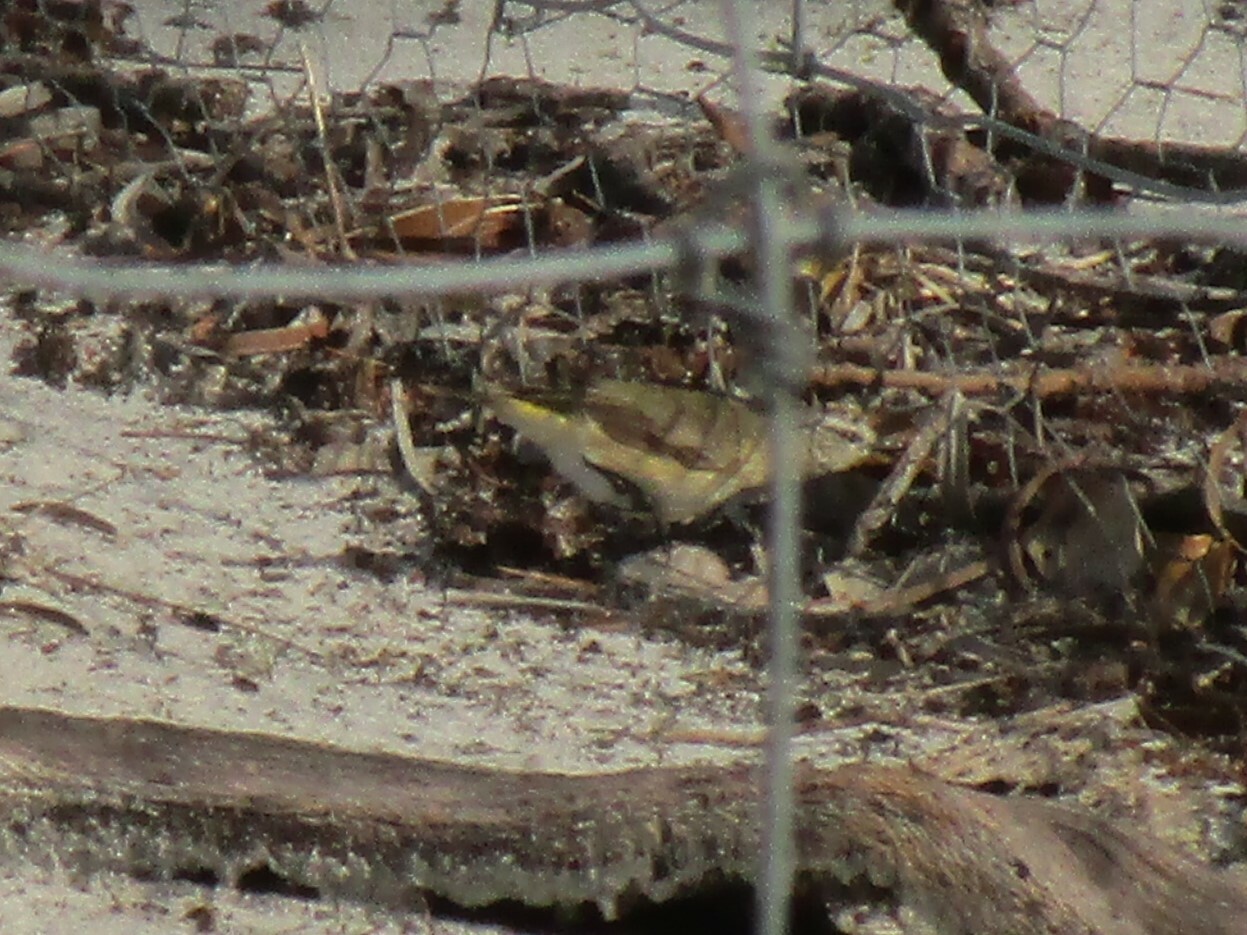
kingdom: Animalia
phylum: Chordata
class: Aves
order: Passeriformes
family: Acanthizidae
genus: Acanthiza
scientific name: Acanthiza chrysorrhoa
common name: Yellow-rumped thornbill
